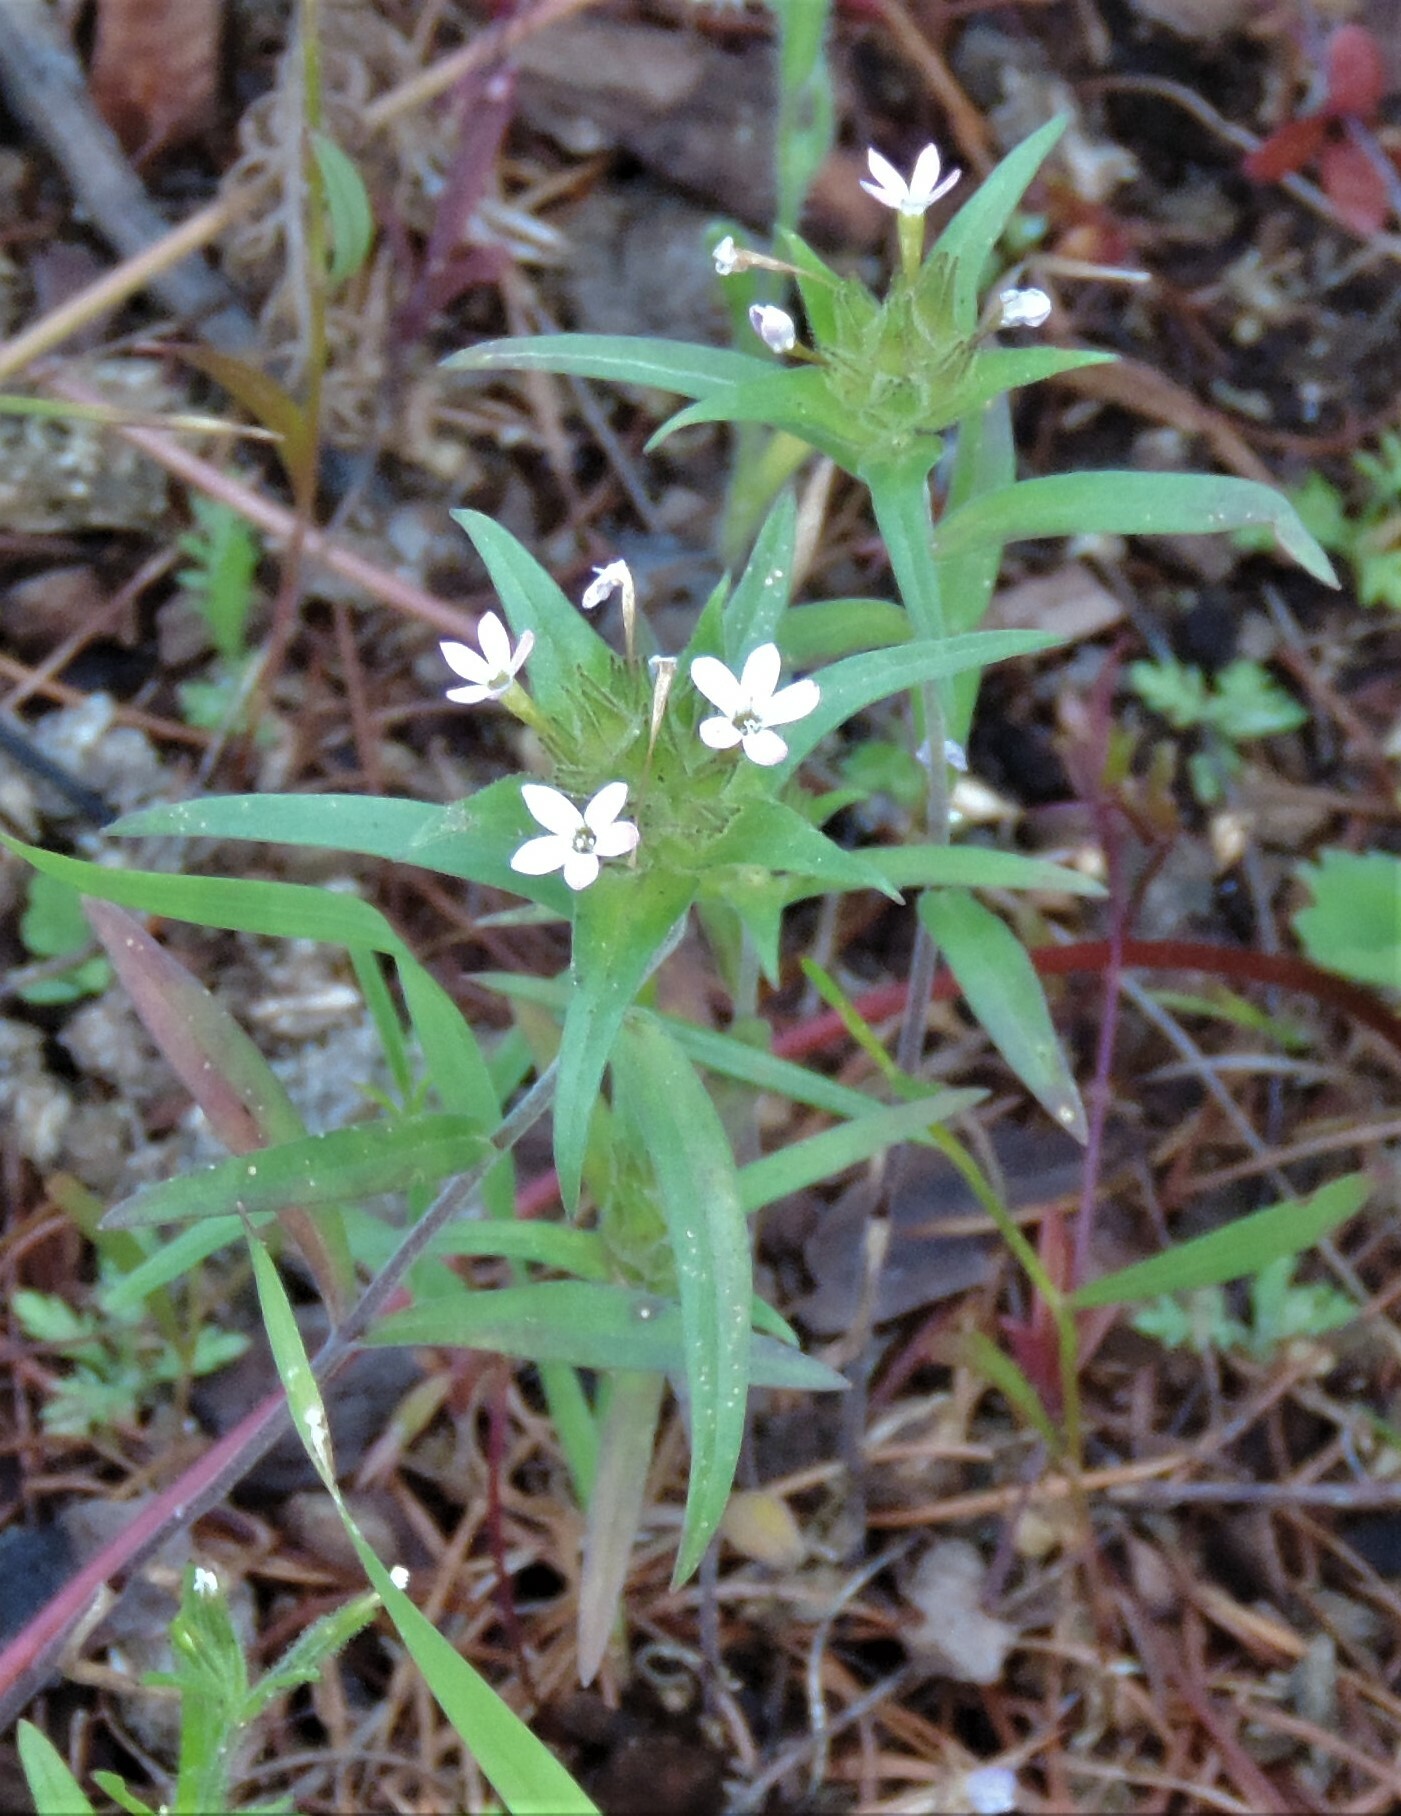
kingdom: Plantae
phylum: Tracheophyta
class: Magnoliopsida
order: Ericales
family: Polemoniaceae
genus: Collomia
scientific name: Collomia linearis
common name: Tiny trumpet
